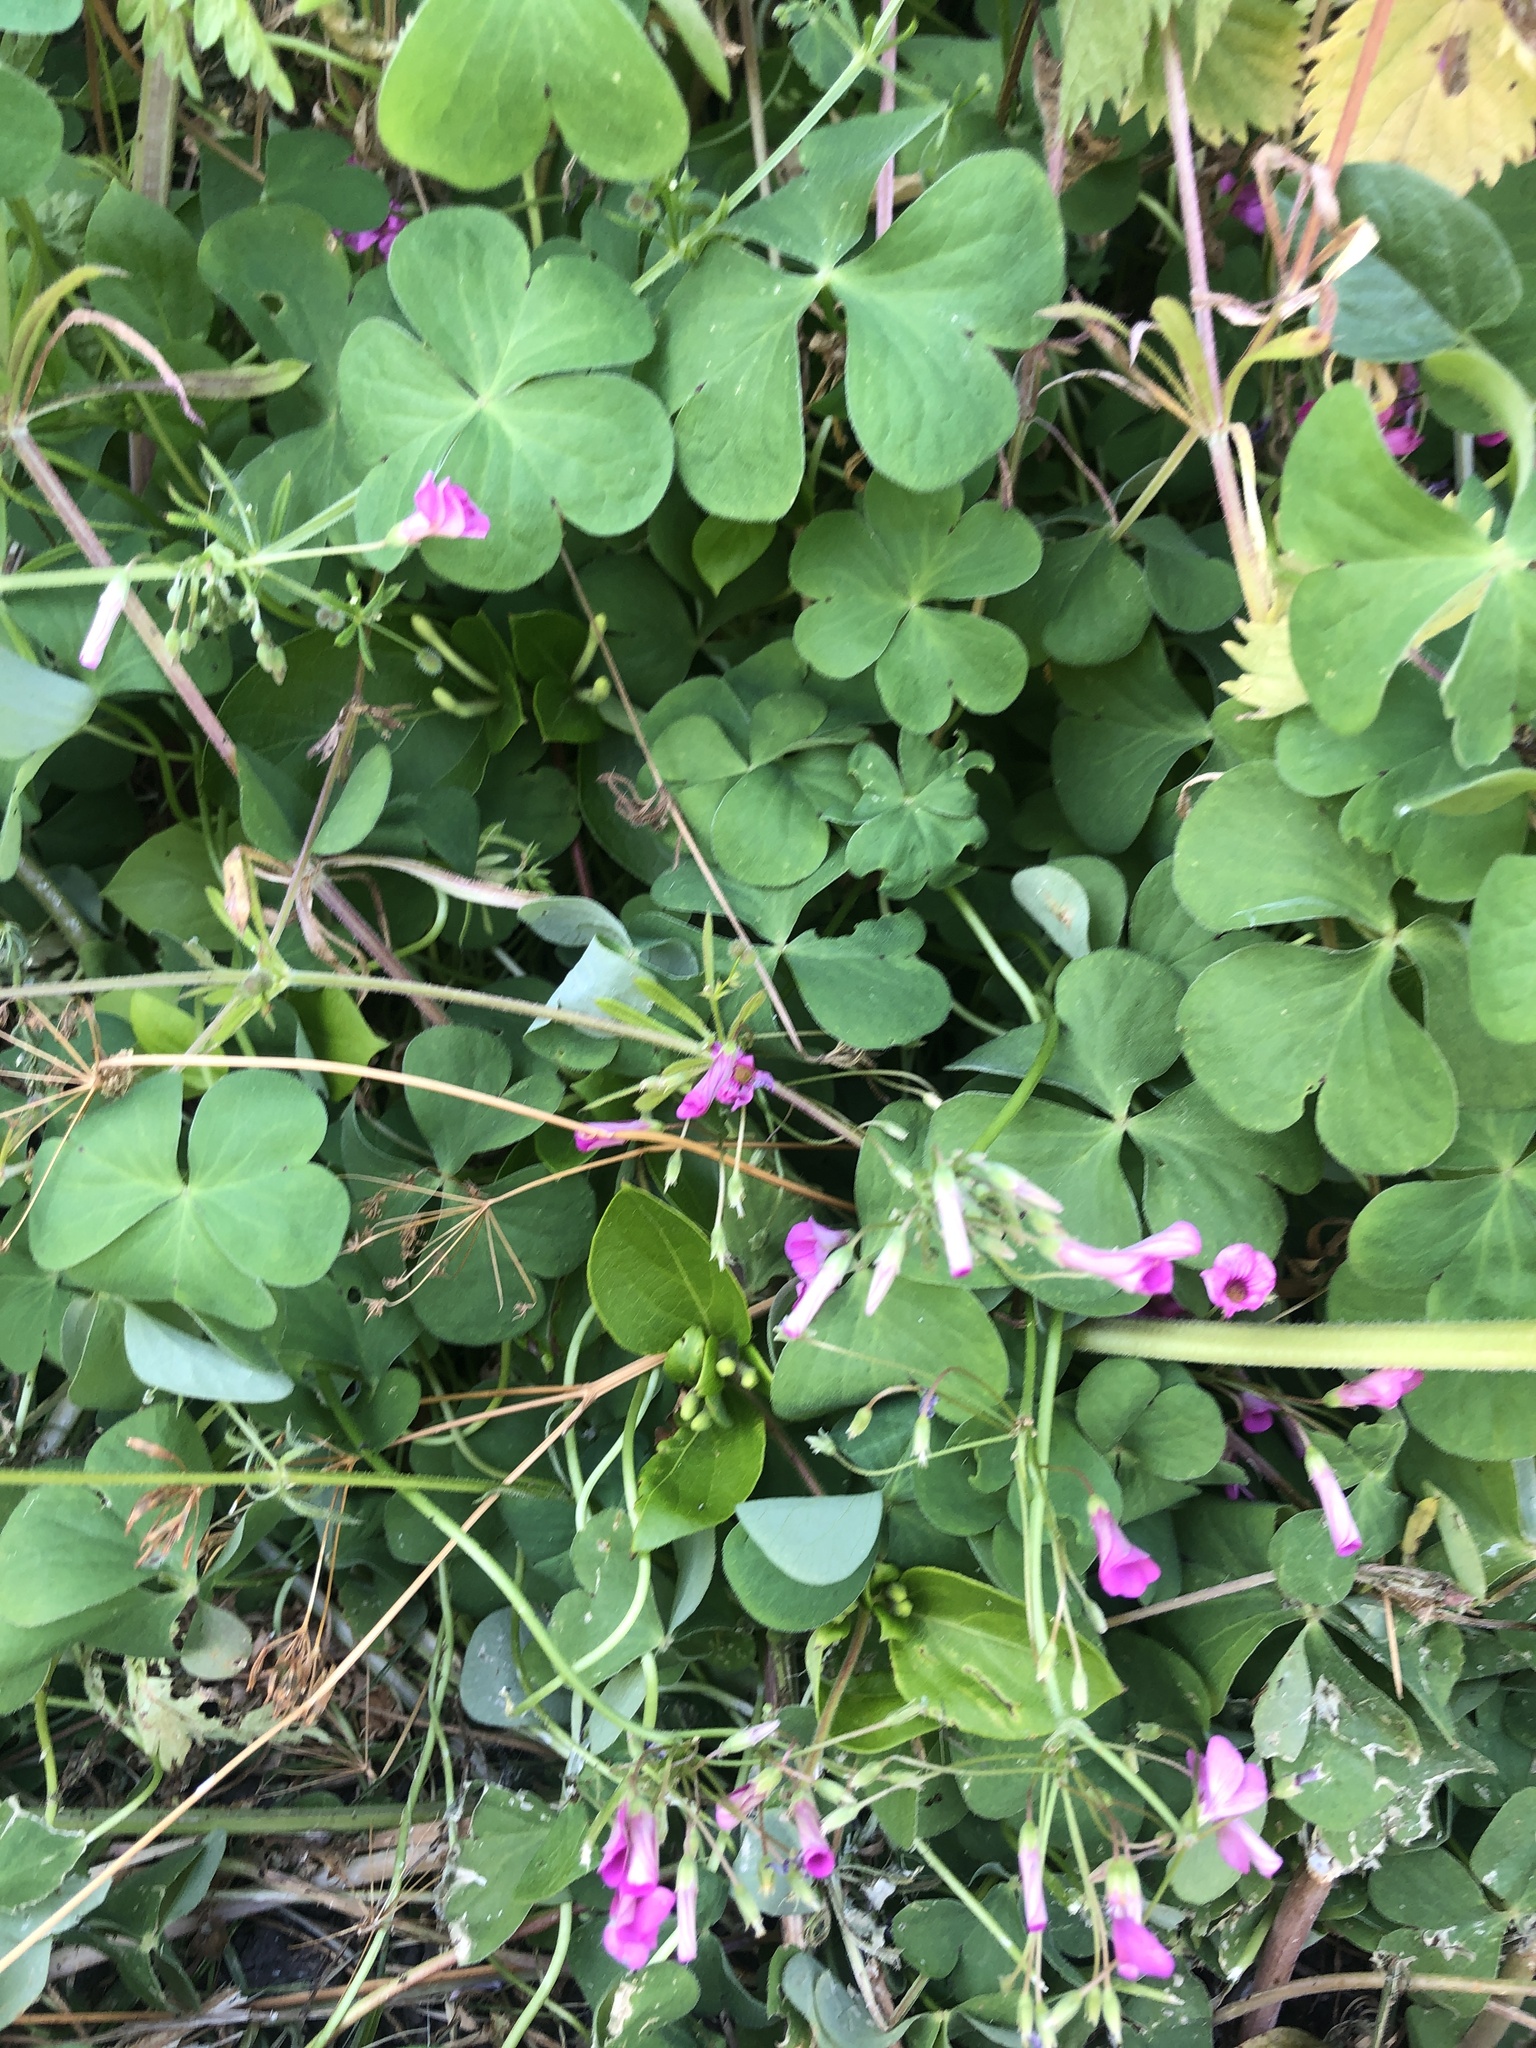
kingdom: Plantae
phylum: Tracheophyta
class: Magnoliopsida
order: Oxalidales
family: Oxalidaceae
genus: Oxalis
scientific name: Oxalis articulata
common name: Pink-sorrel
